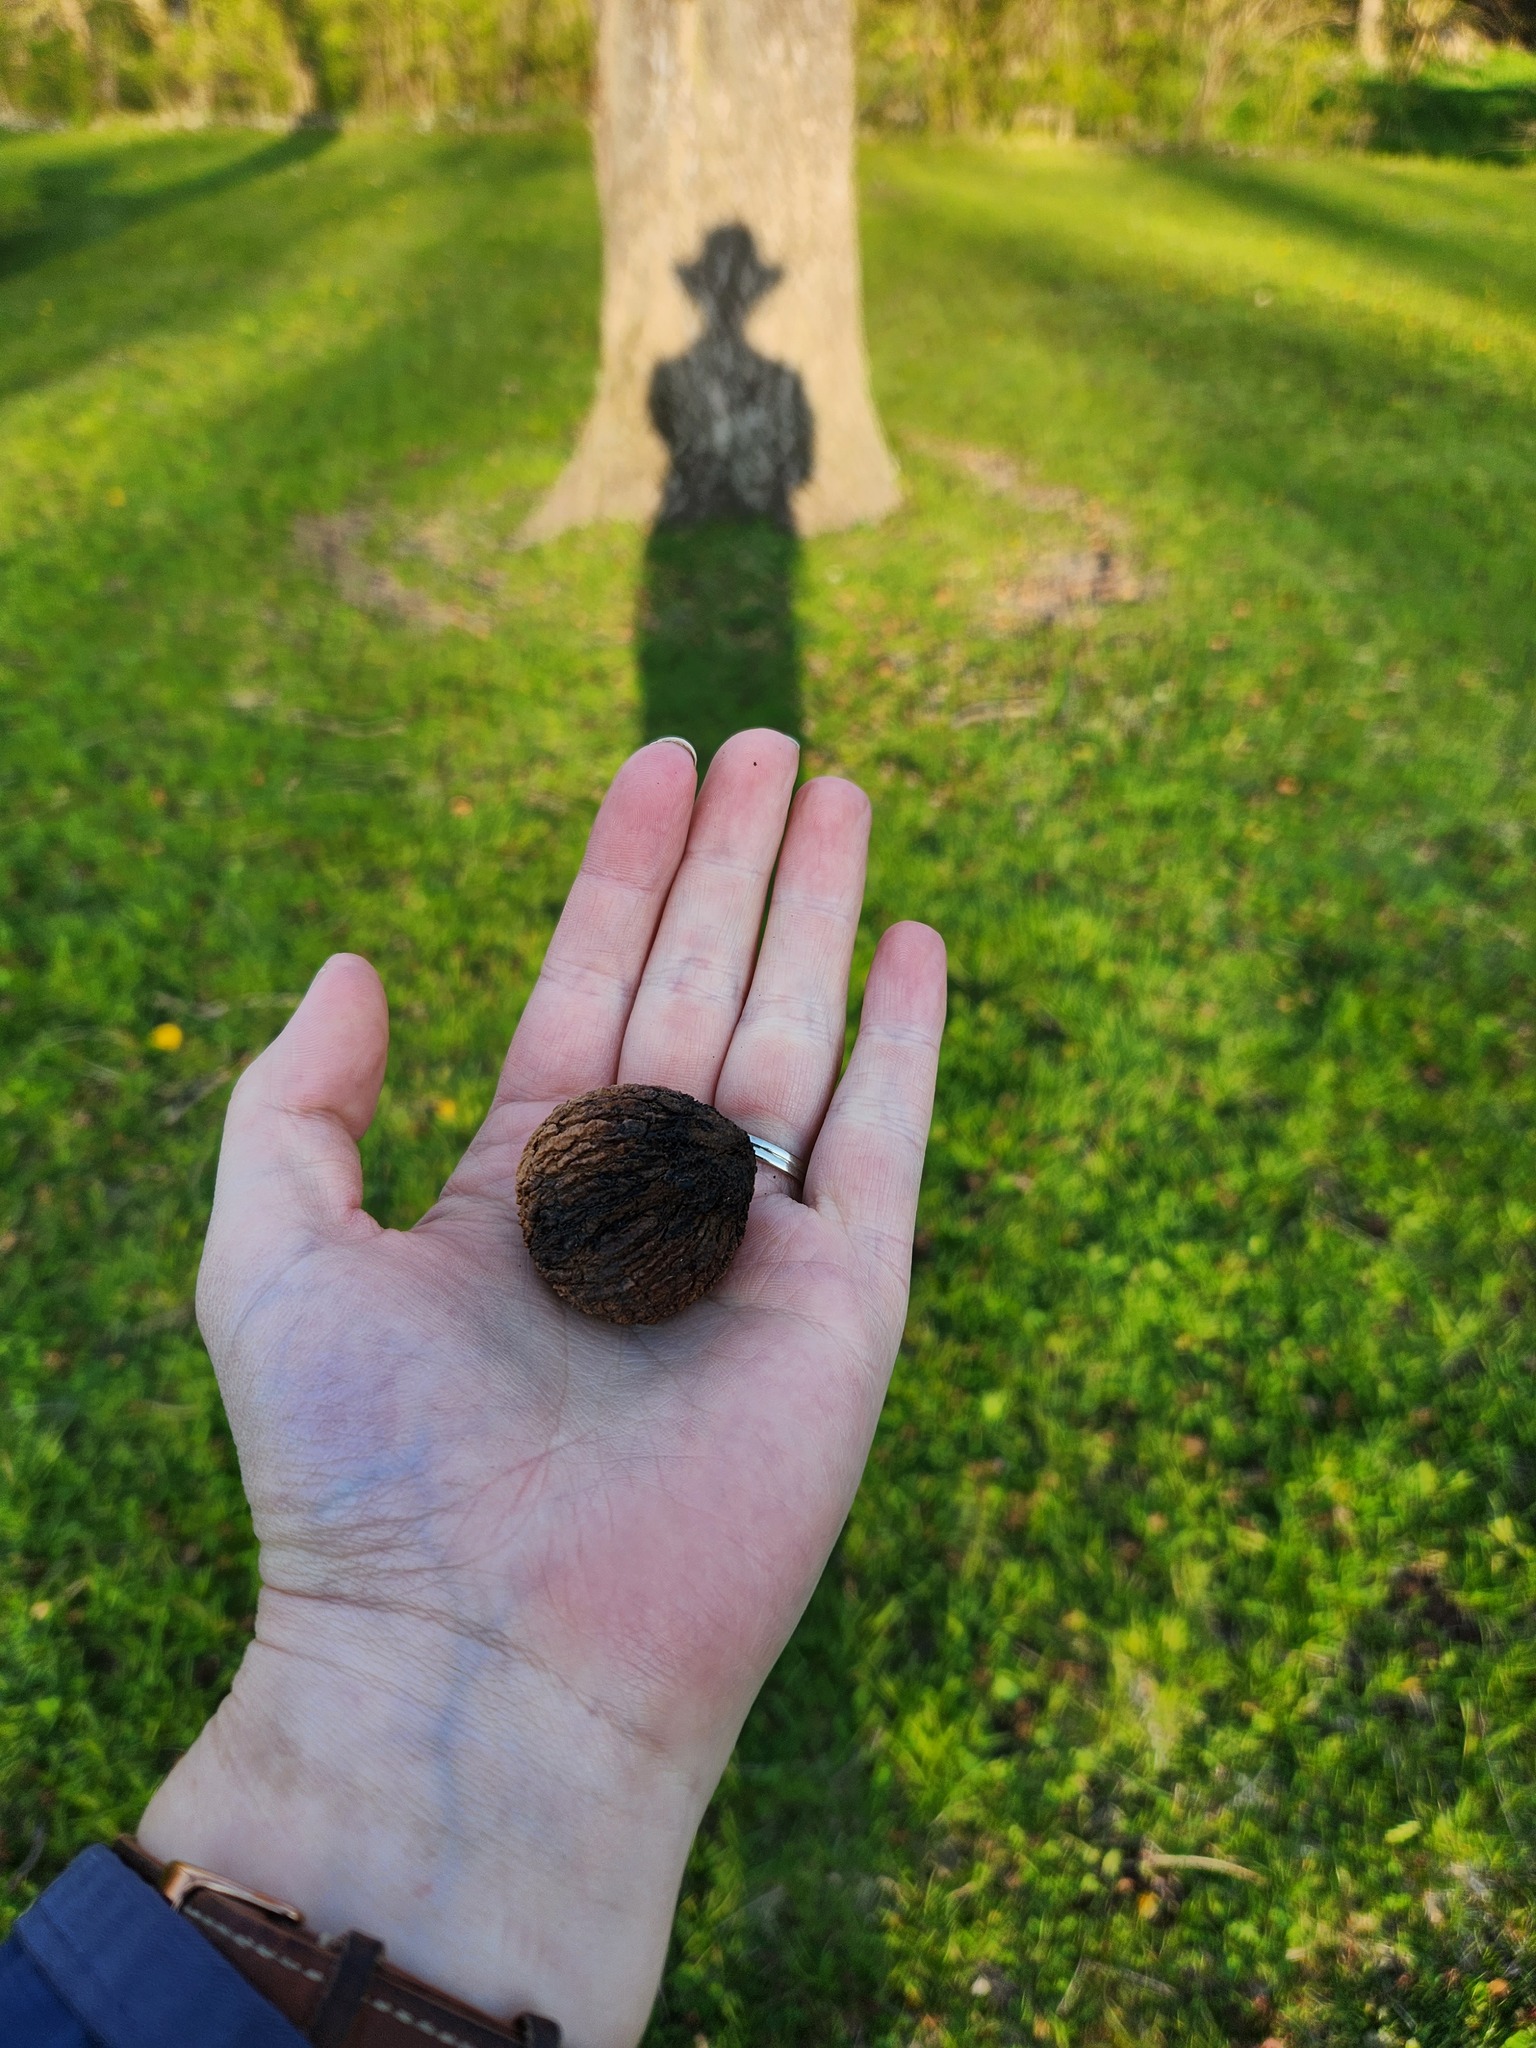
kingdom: Plantae
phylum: Tracheophyta
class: Magnoliopsida
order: Fagales
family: Juglandaceae
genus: Juglans
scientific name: Juglans nigra
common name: Black walnut
